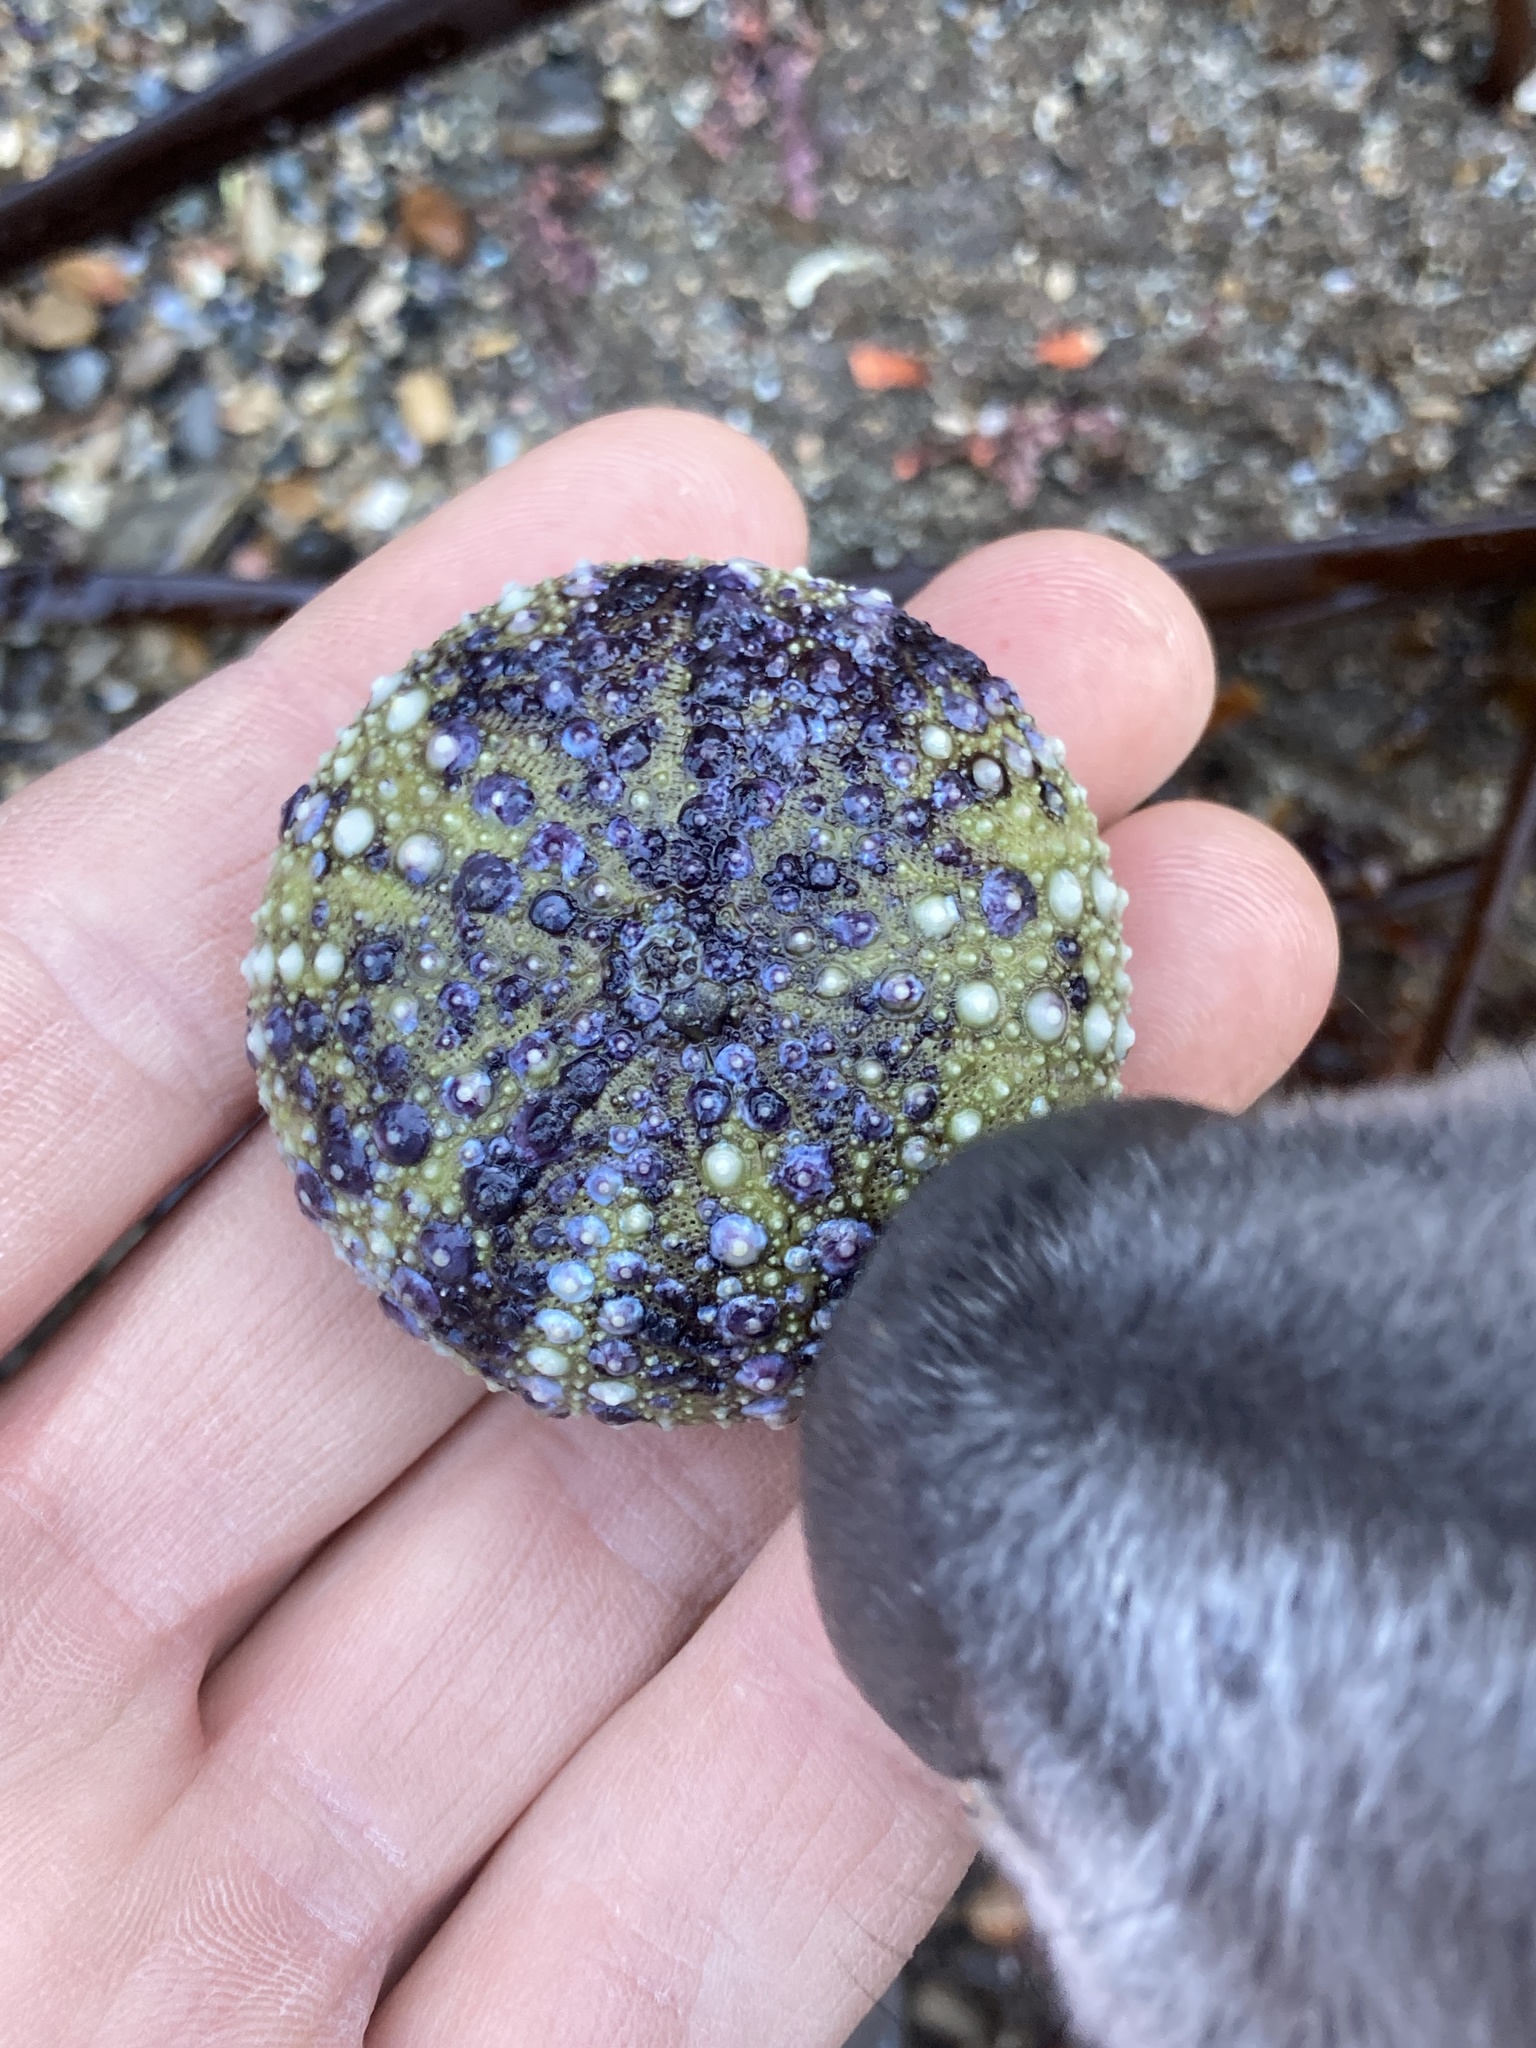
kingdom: Animalia
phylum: Echinodermata
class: Echinoidea
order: Camarodonta
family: Strongylocentrotidae
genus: Strongylocentrotus
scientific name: Strongylocentrotus purpuratus
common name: Purple sea urchin
